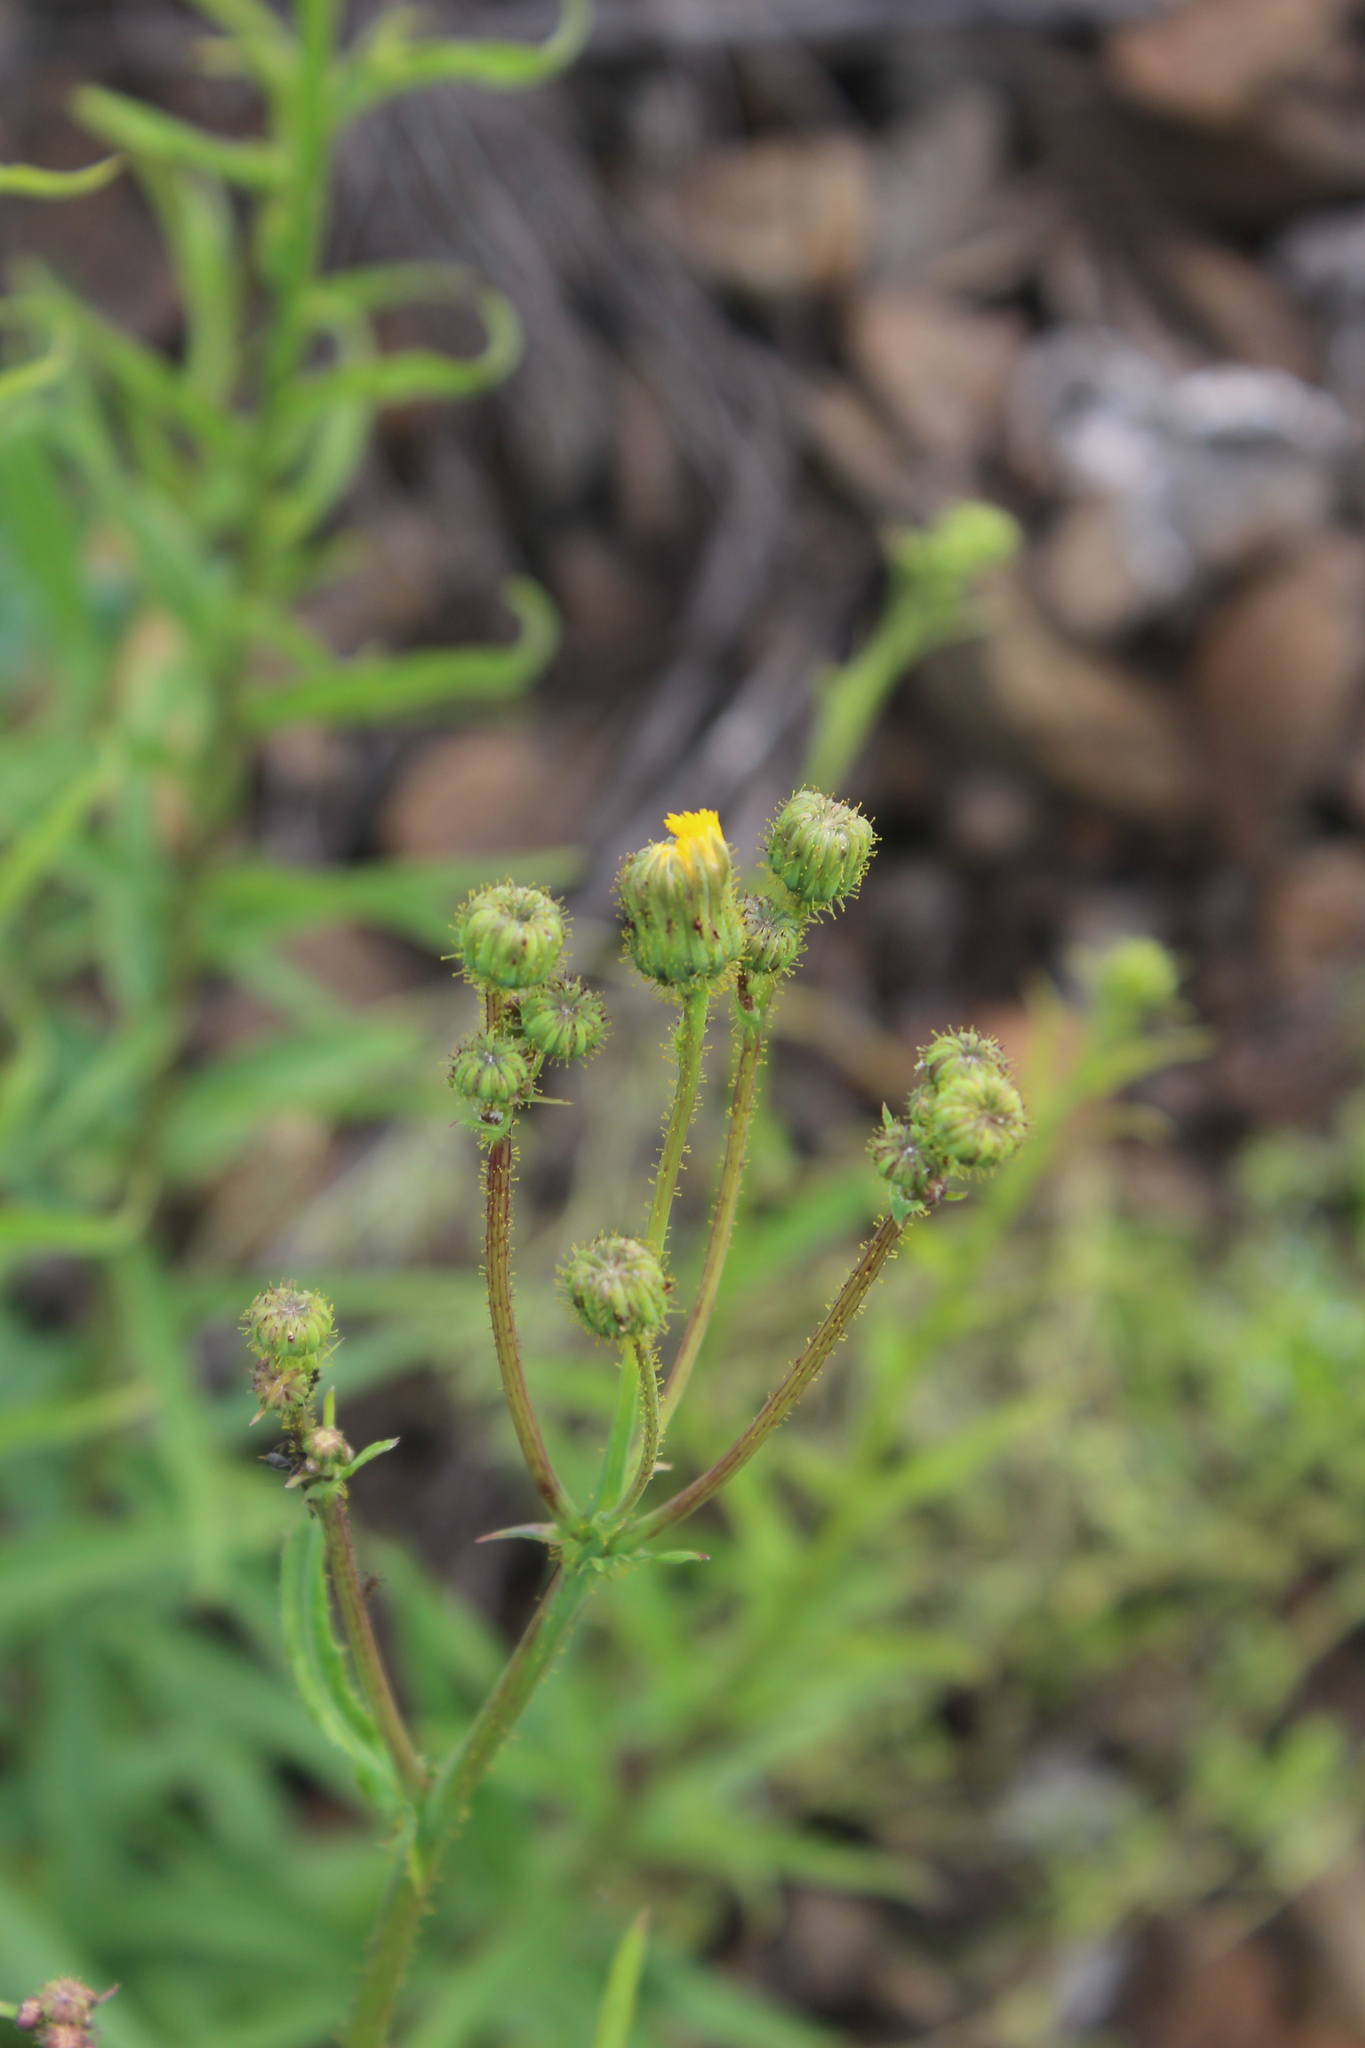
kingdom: Plantae
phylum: Tracheophyta
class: Magnoliopsida
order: Asterales
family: Asteraceae
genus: Sonchus
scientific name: Sonchus arvensis
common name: Perennial sow-thistle
